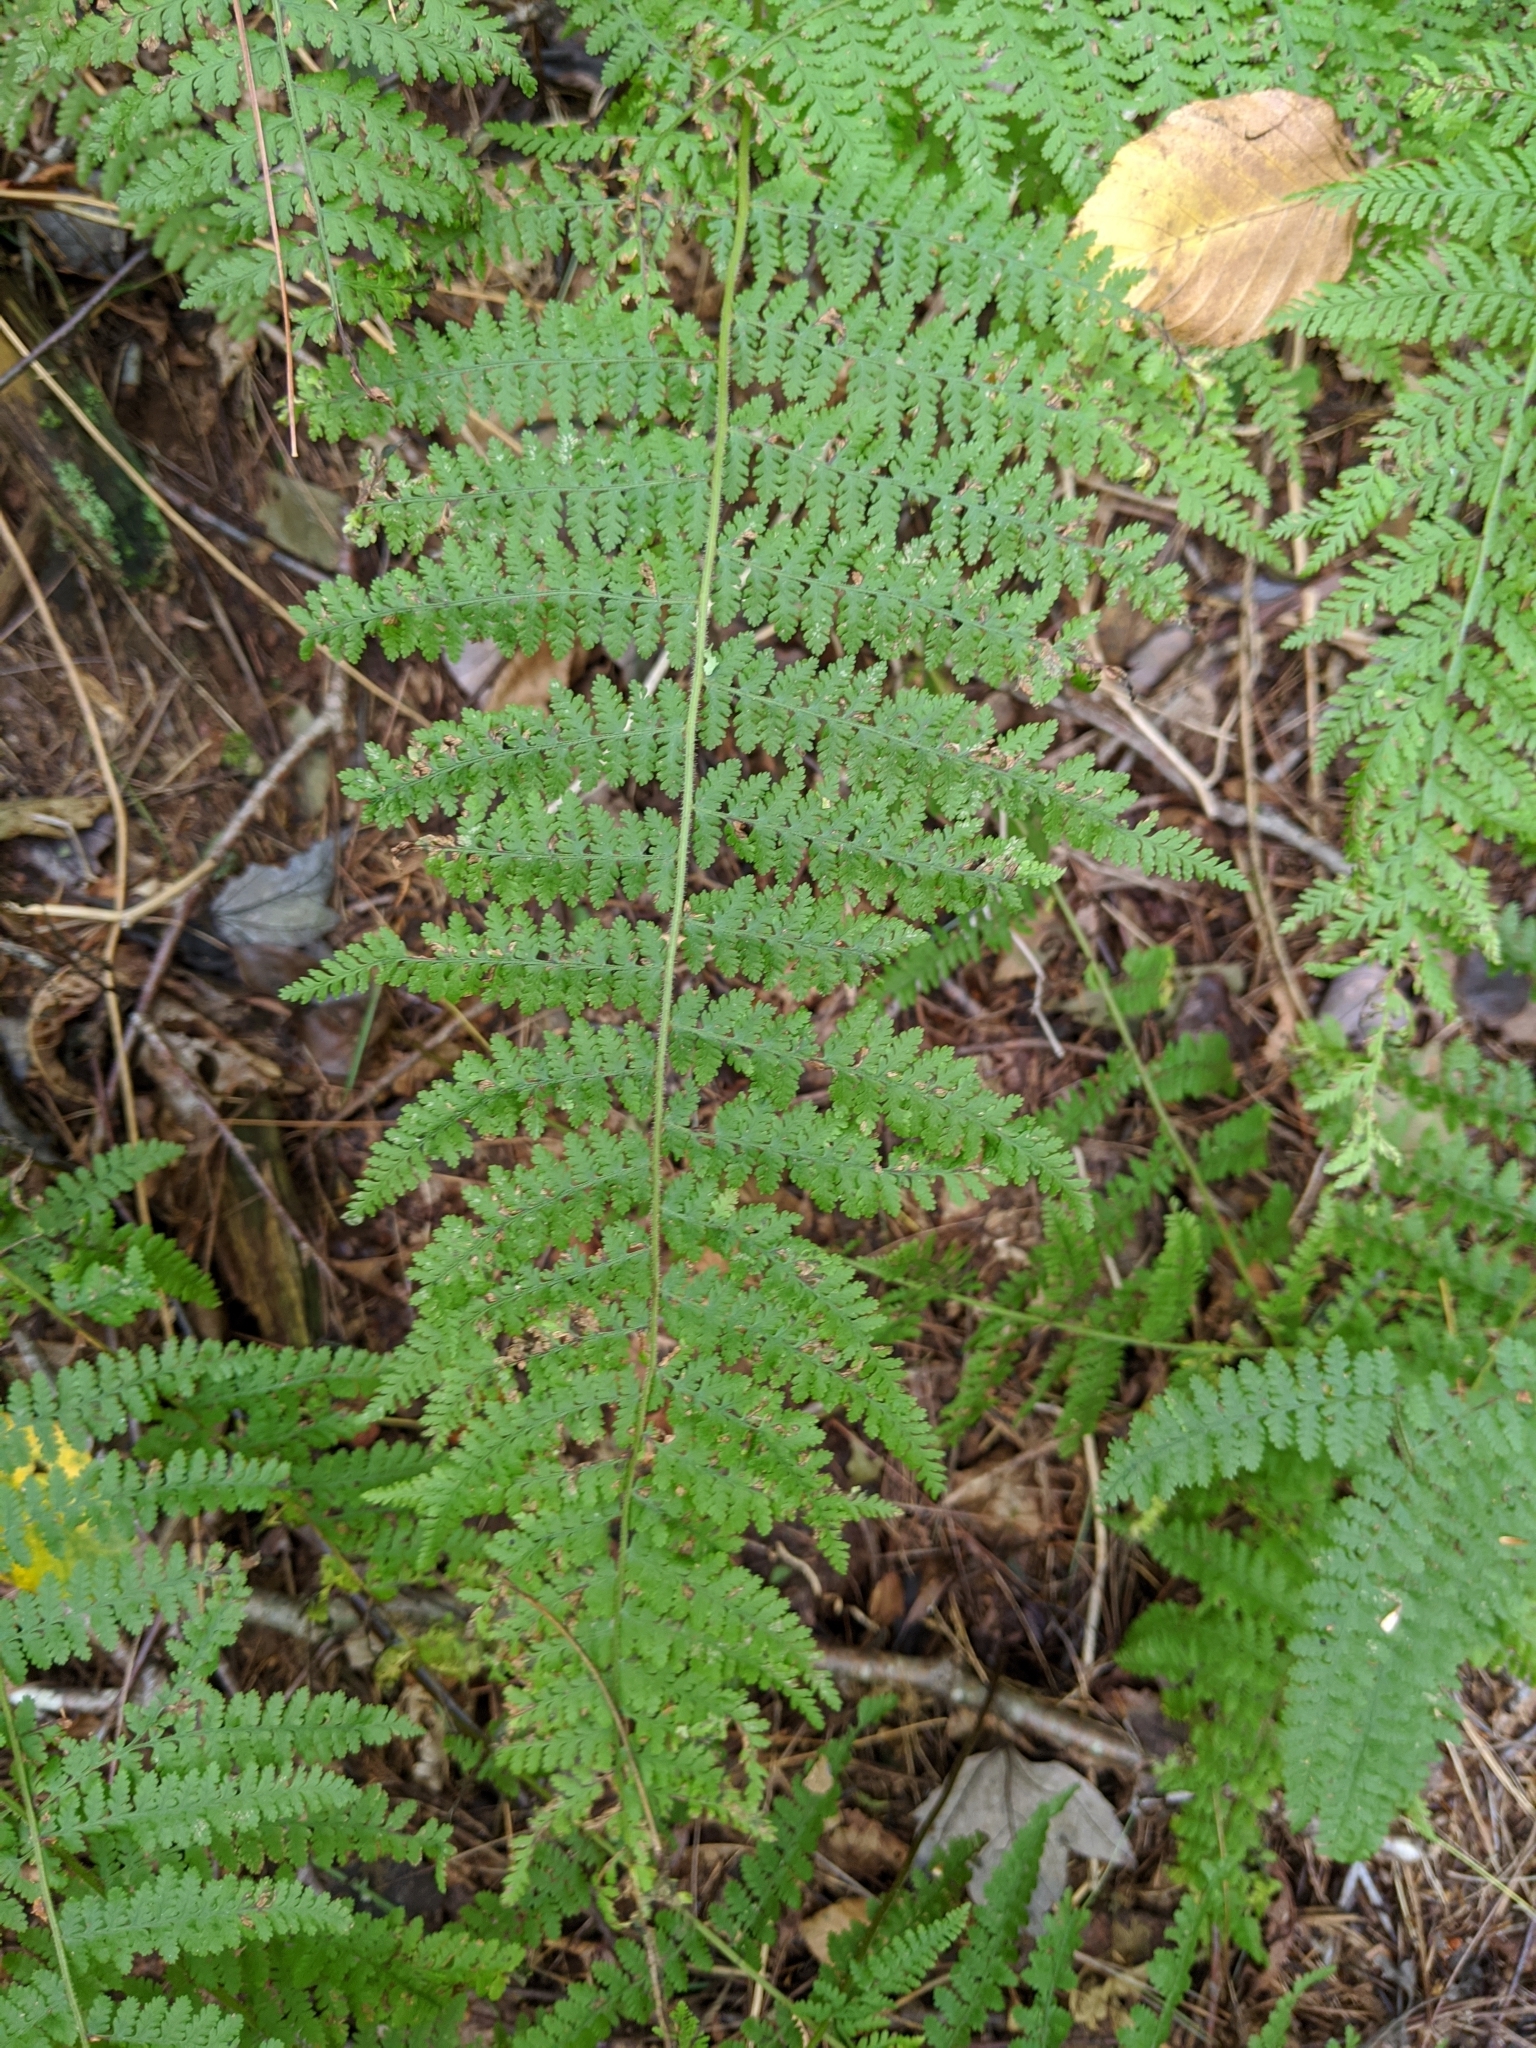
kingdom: Plantae
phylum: Tracheophyta
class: Polypodiopsida
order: Polypodiales
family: Dennstaedtiaceae
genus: Sitobolium
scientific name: Sitobolium punctilobum
